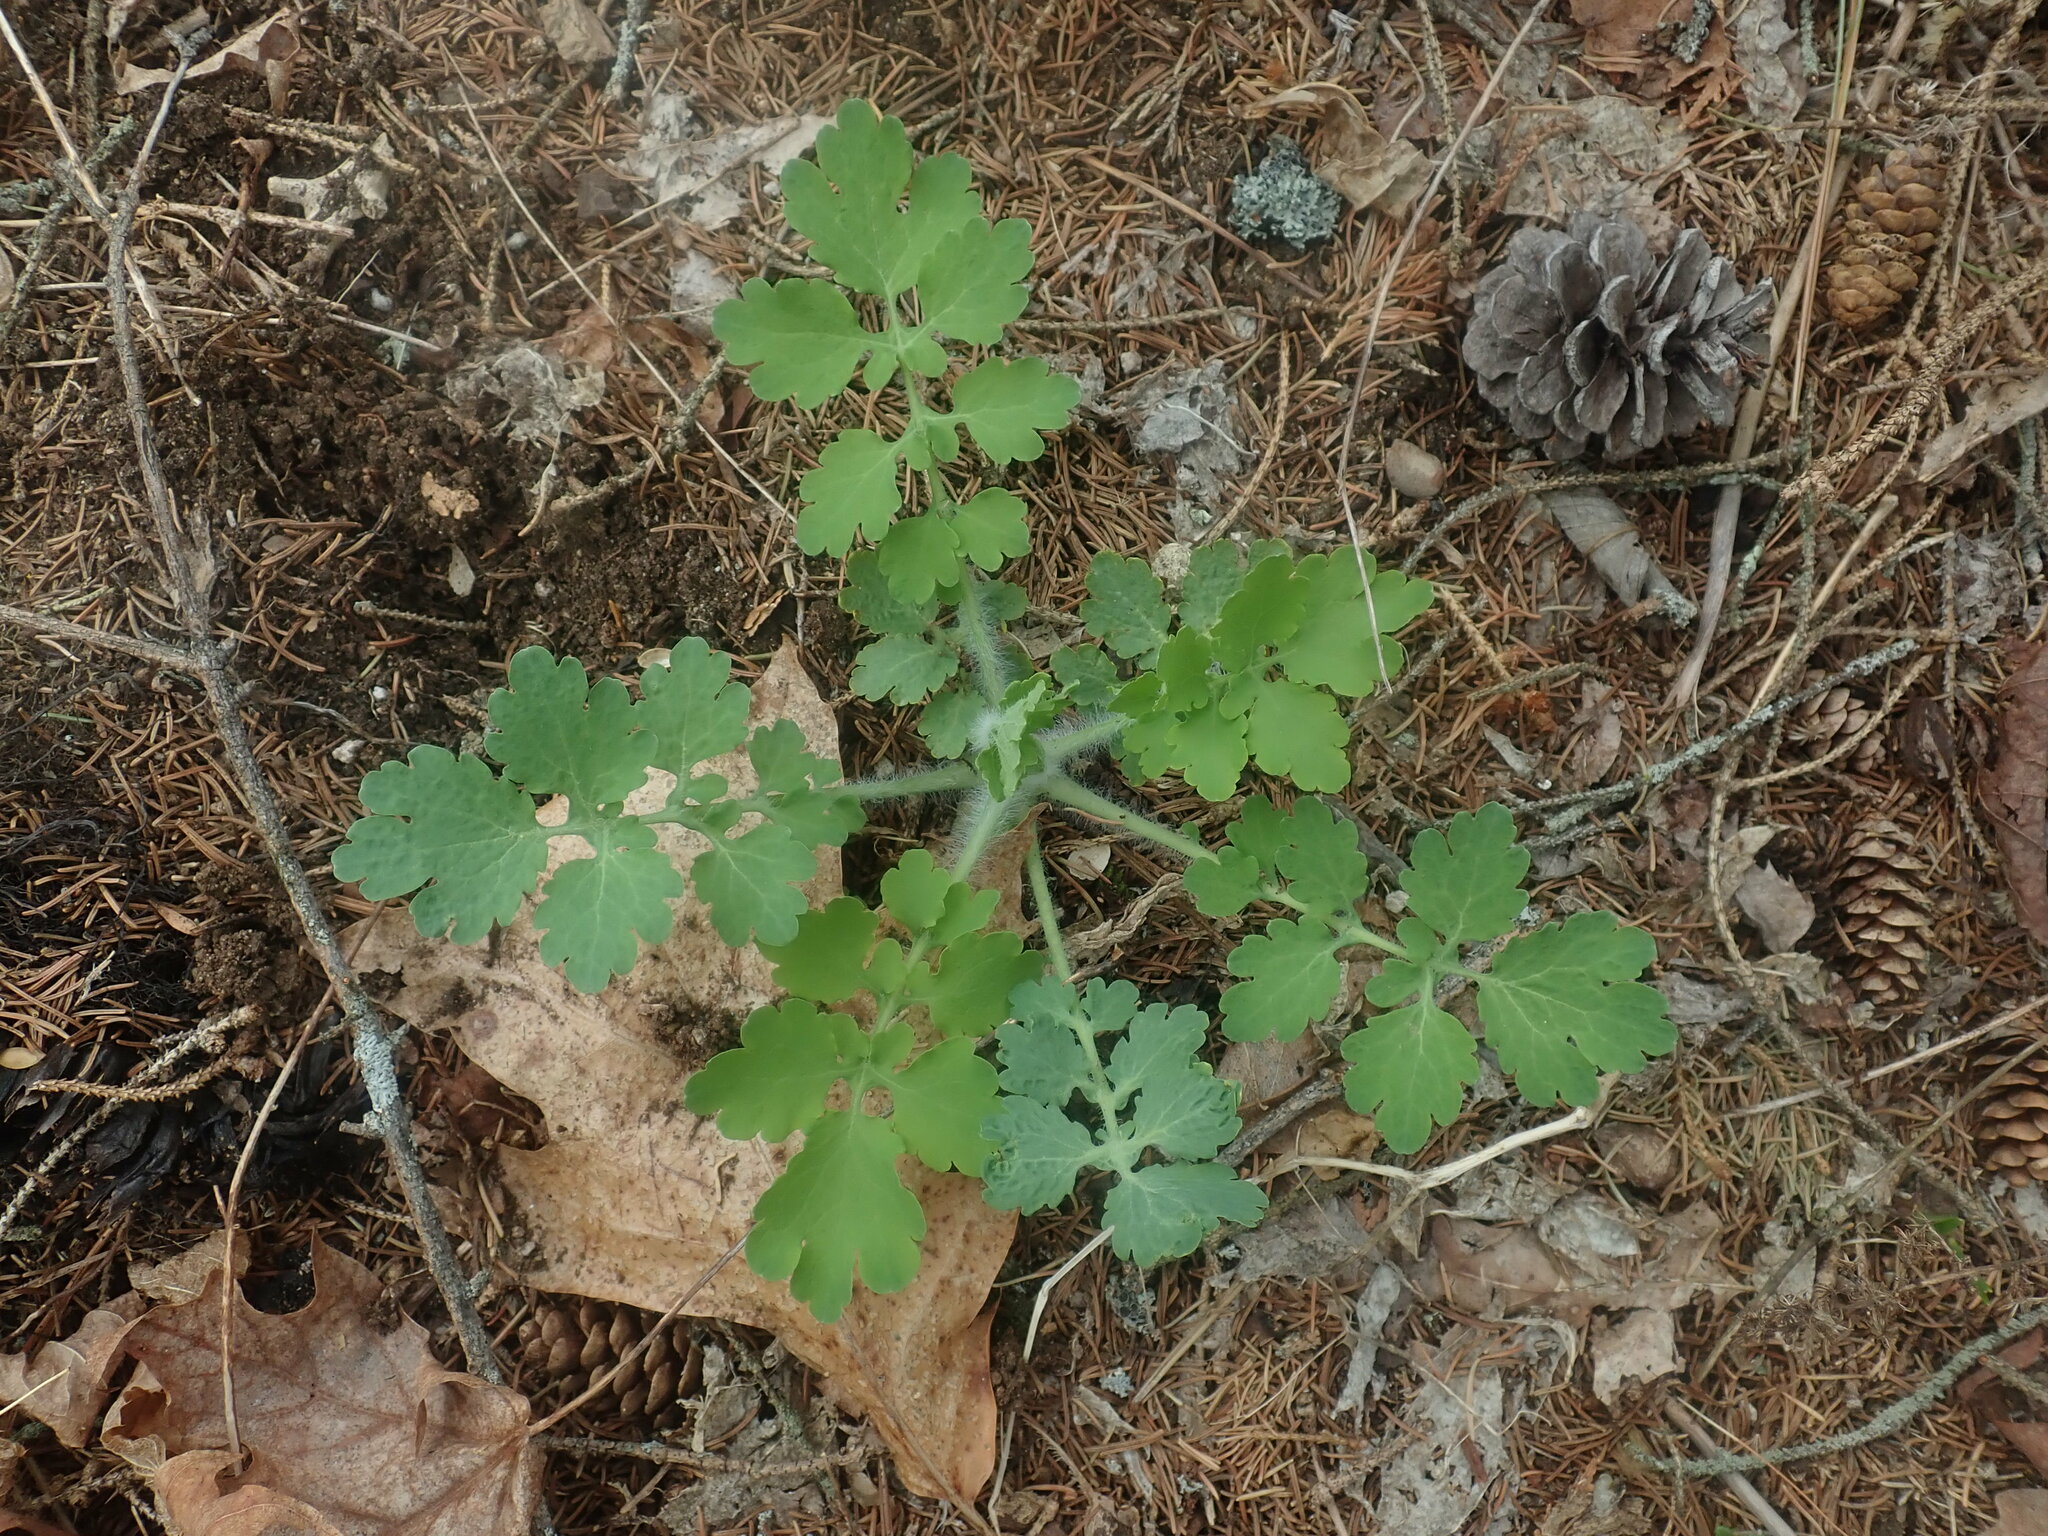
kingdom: Plantae
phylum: Tracheophyta
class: Magnoliopsida
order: Ranunculales
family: Papaveraceae
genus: Chelidonium
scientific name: Chelidonium majus
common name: Greater celandine
